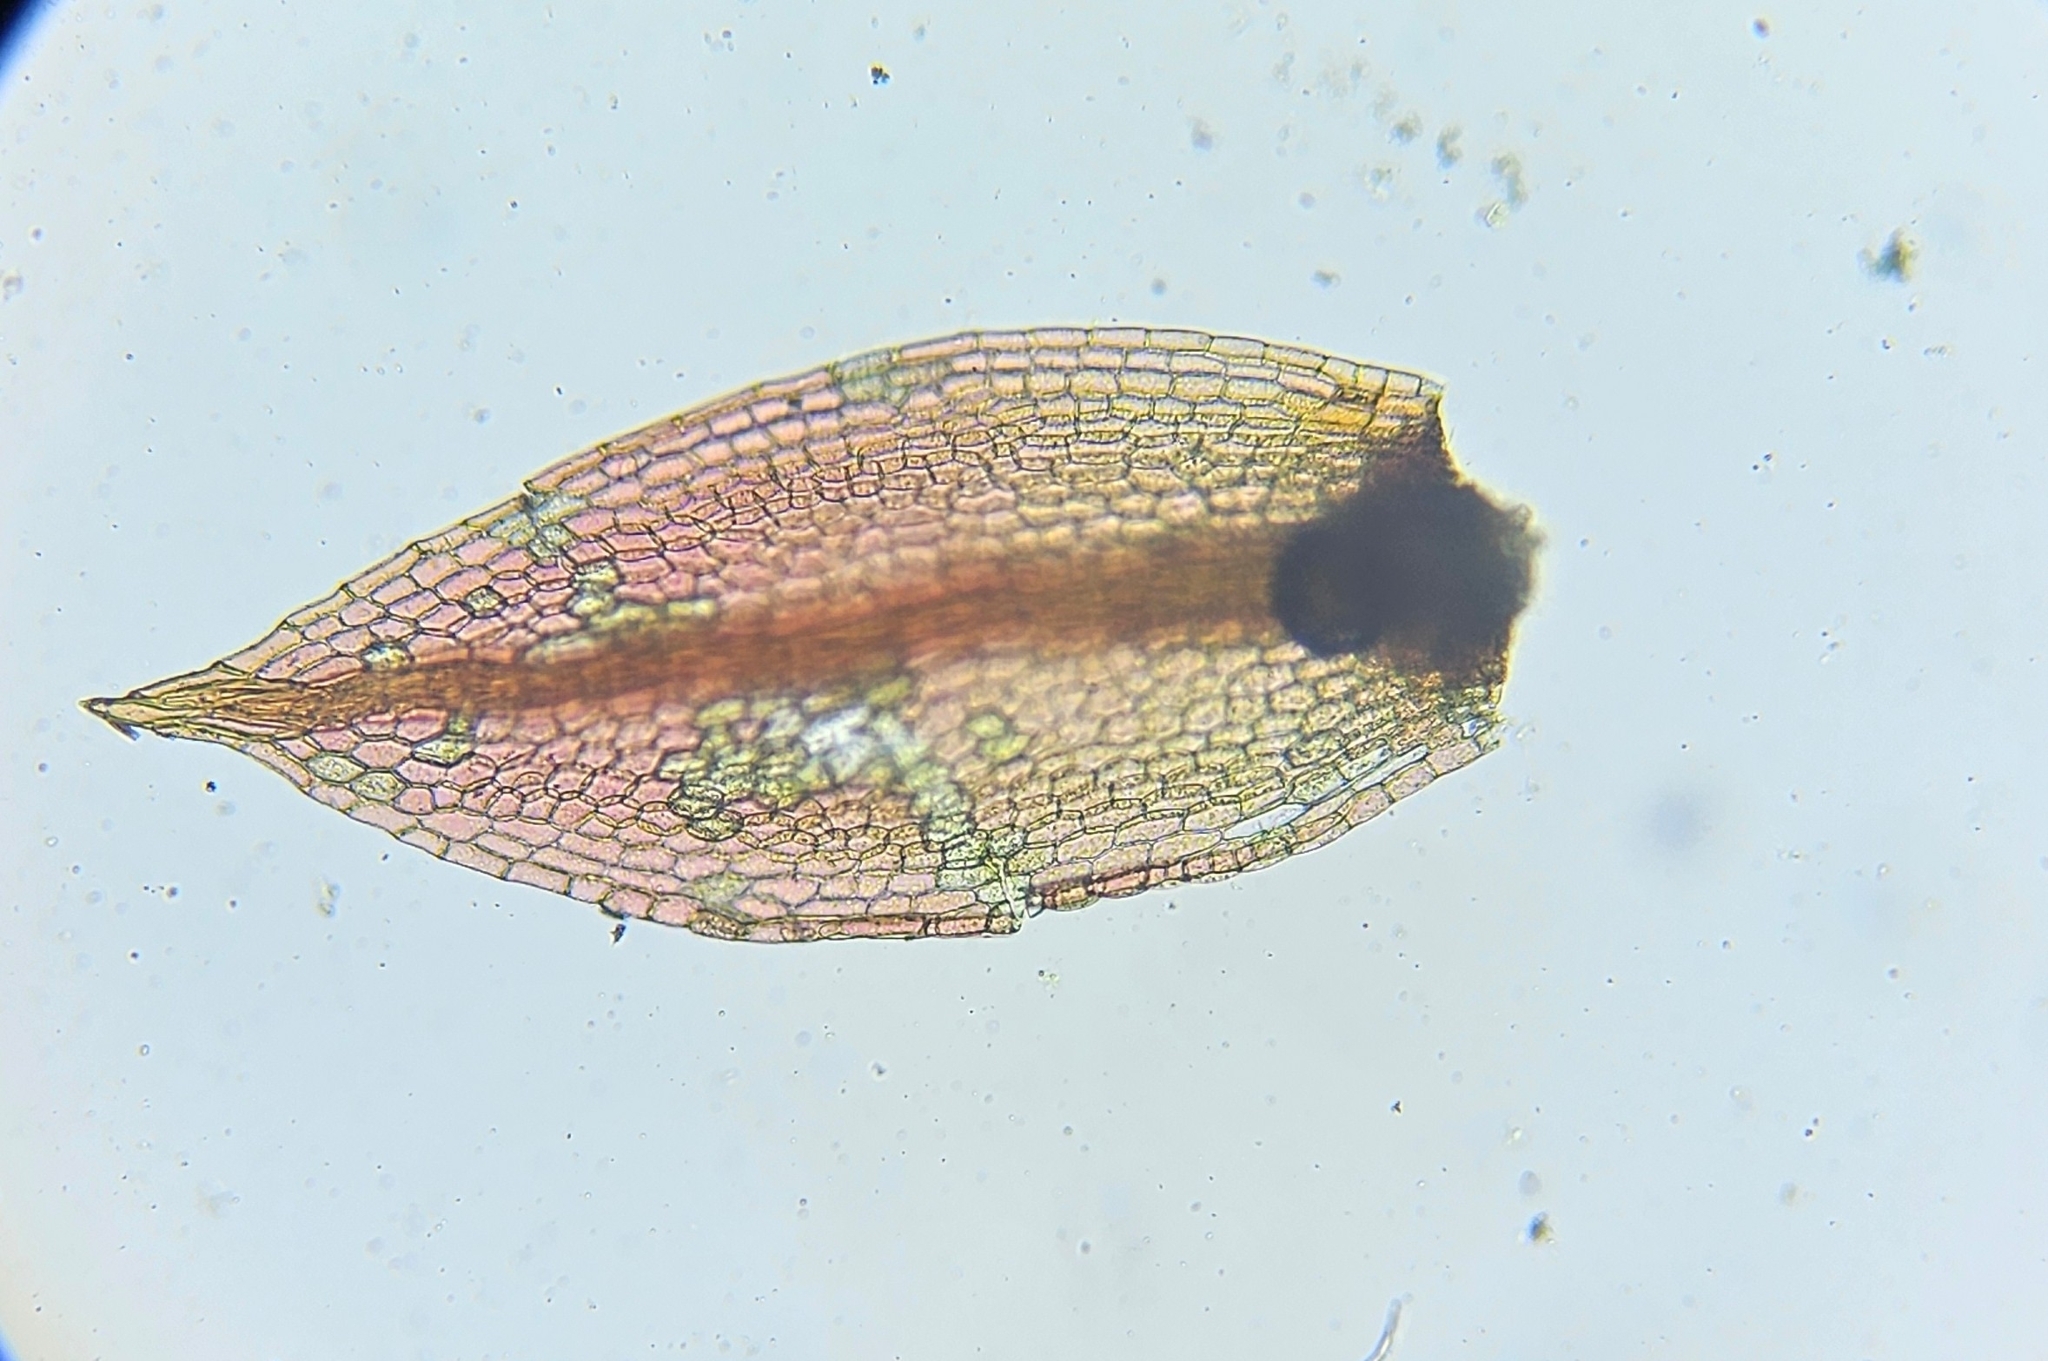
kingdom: Plantae
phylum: Bryophyta
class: Bryopsida
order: Bryales
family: Bryaceae
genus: Ptychostomum
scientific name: Ptychostomum pallens
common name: Pale thread-moss
